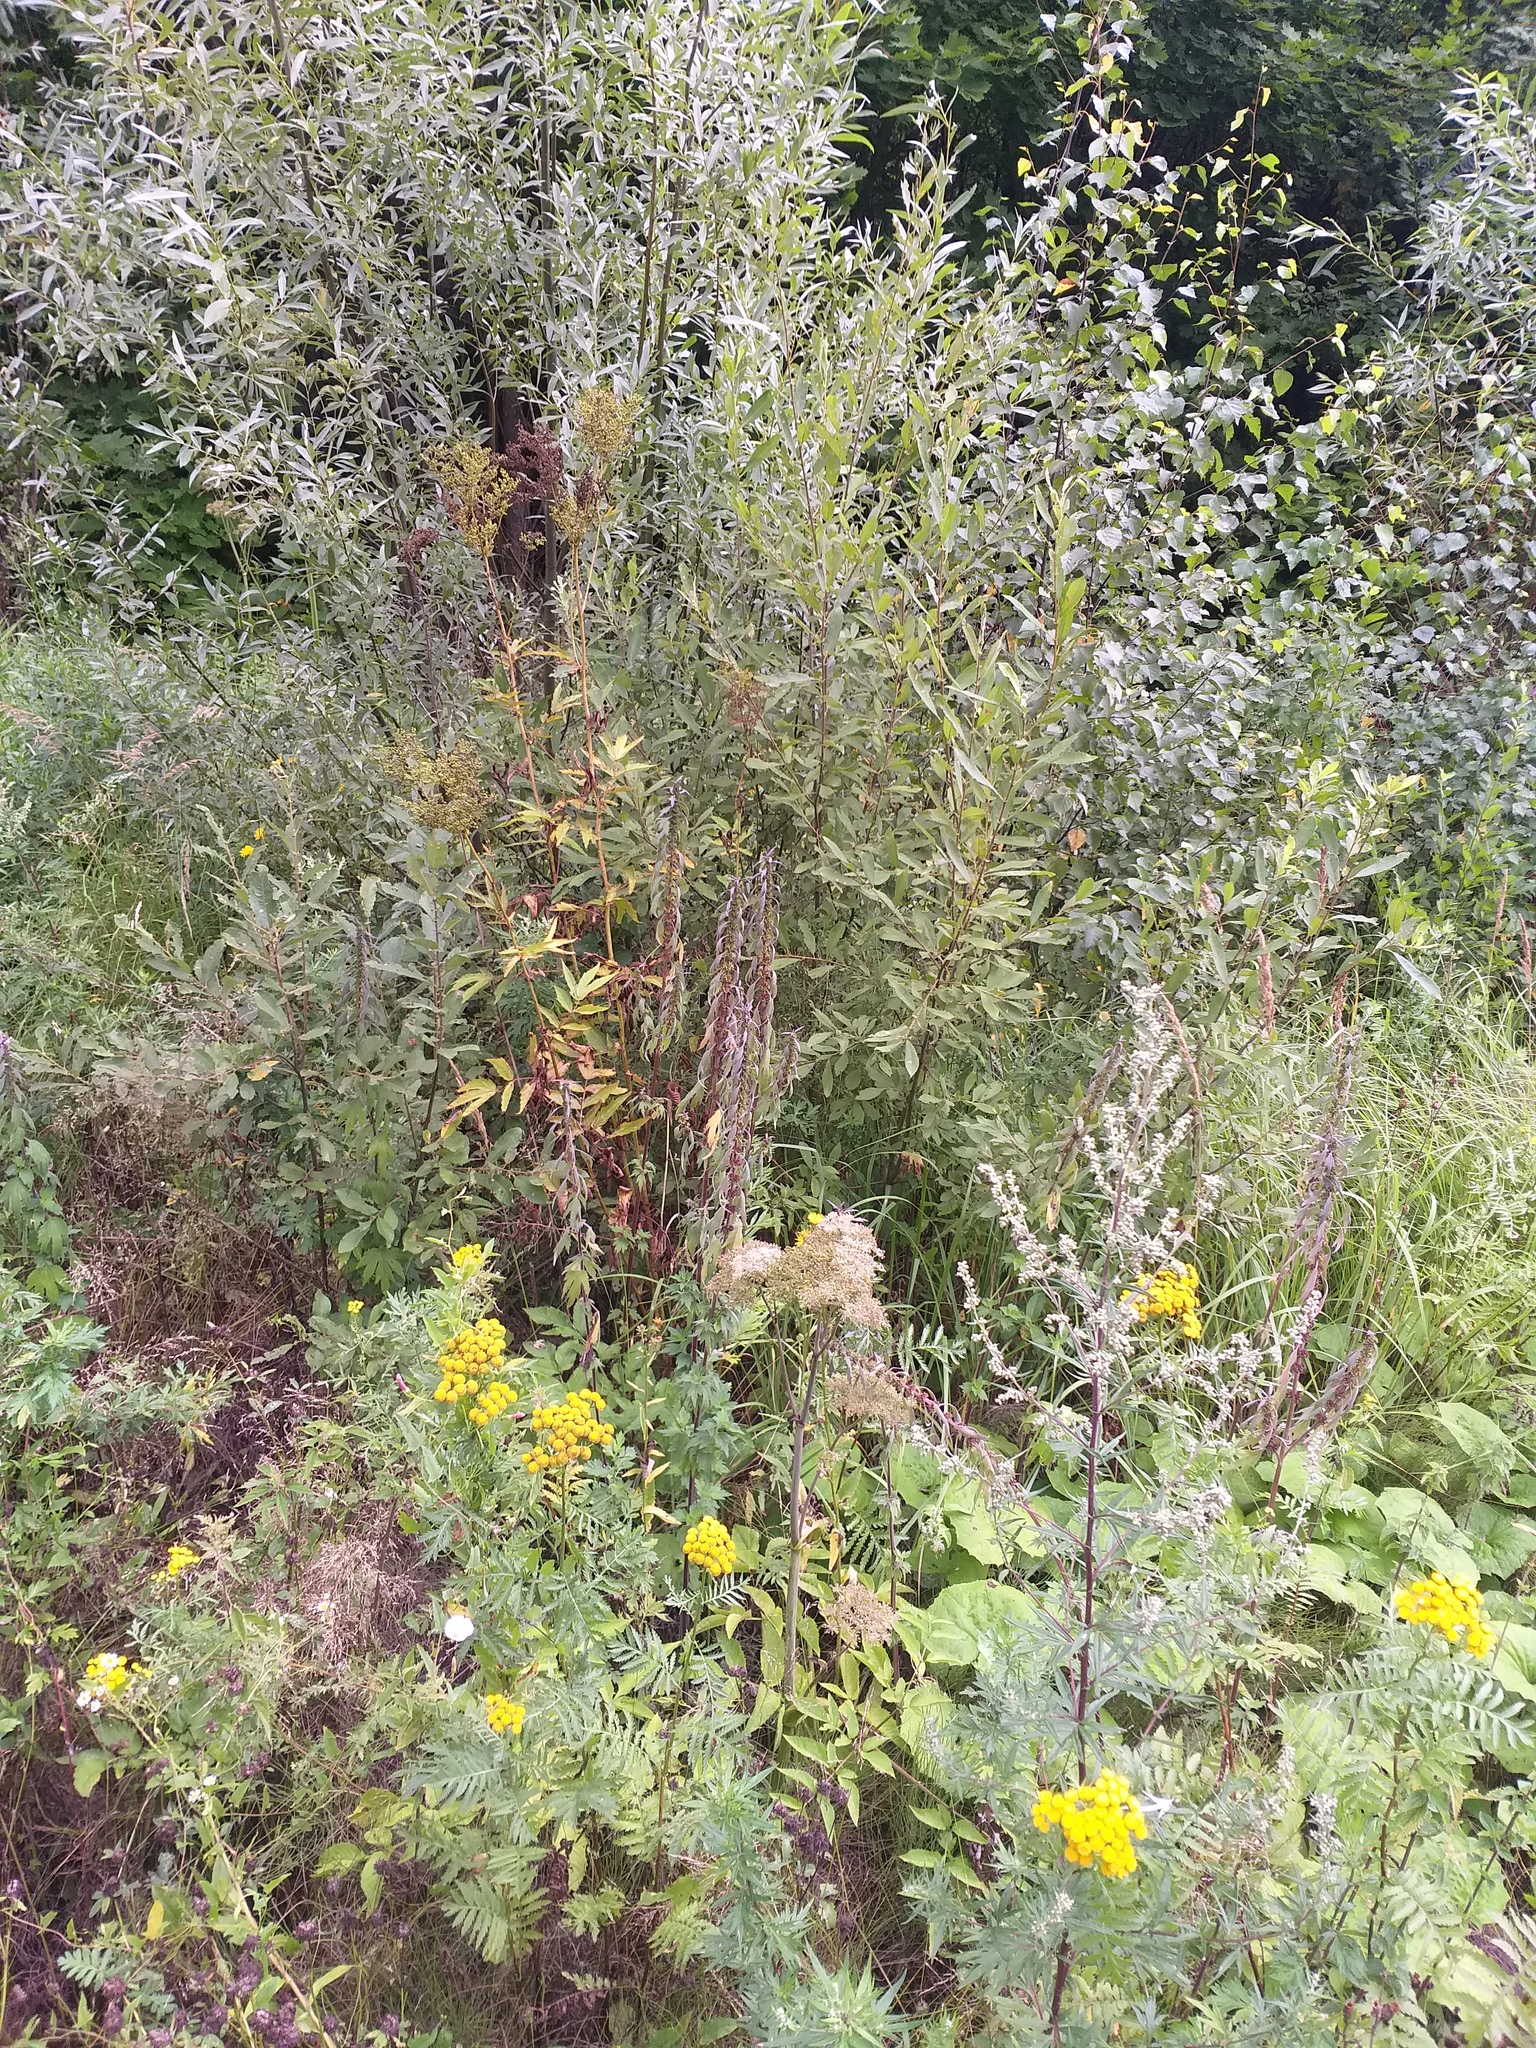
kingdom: Plantae
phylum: Tracheophyta
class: Magnoliopsida
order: Lamiales
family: Lamiaceae
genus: Leonurus
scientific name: Leonurus quinquelobatus
